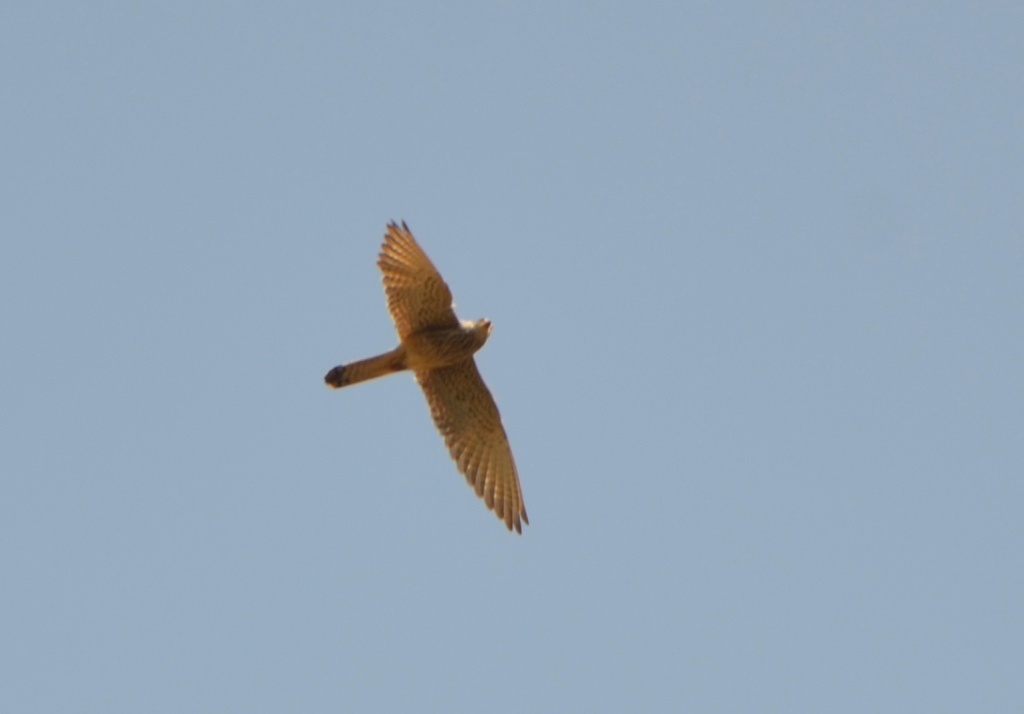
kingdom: Animalia
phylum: Chordata
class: Aves
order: Falconiformes
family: Falconidae
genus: Falco
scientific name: Falco tinnunculus
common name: Common kestrel
